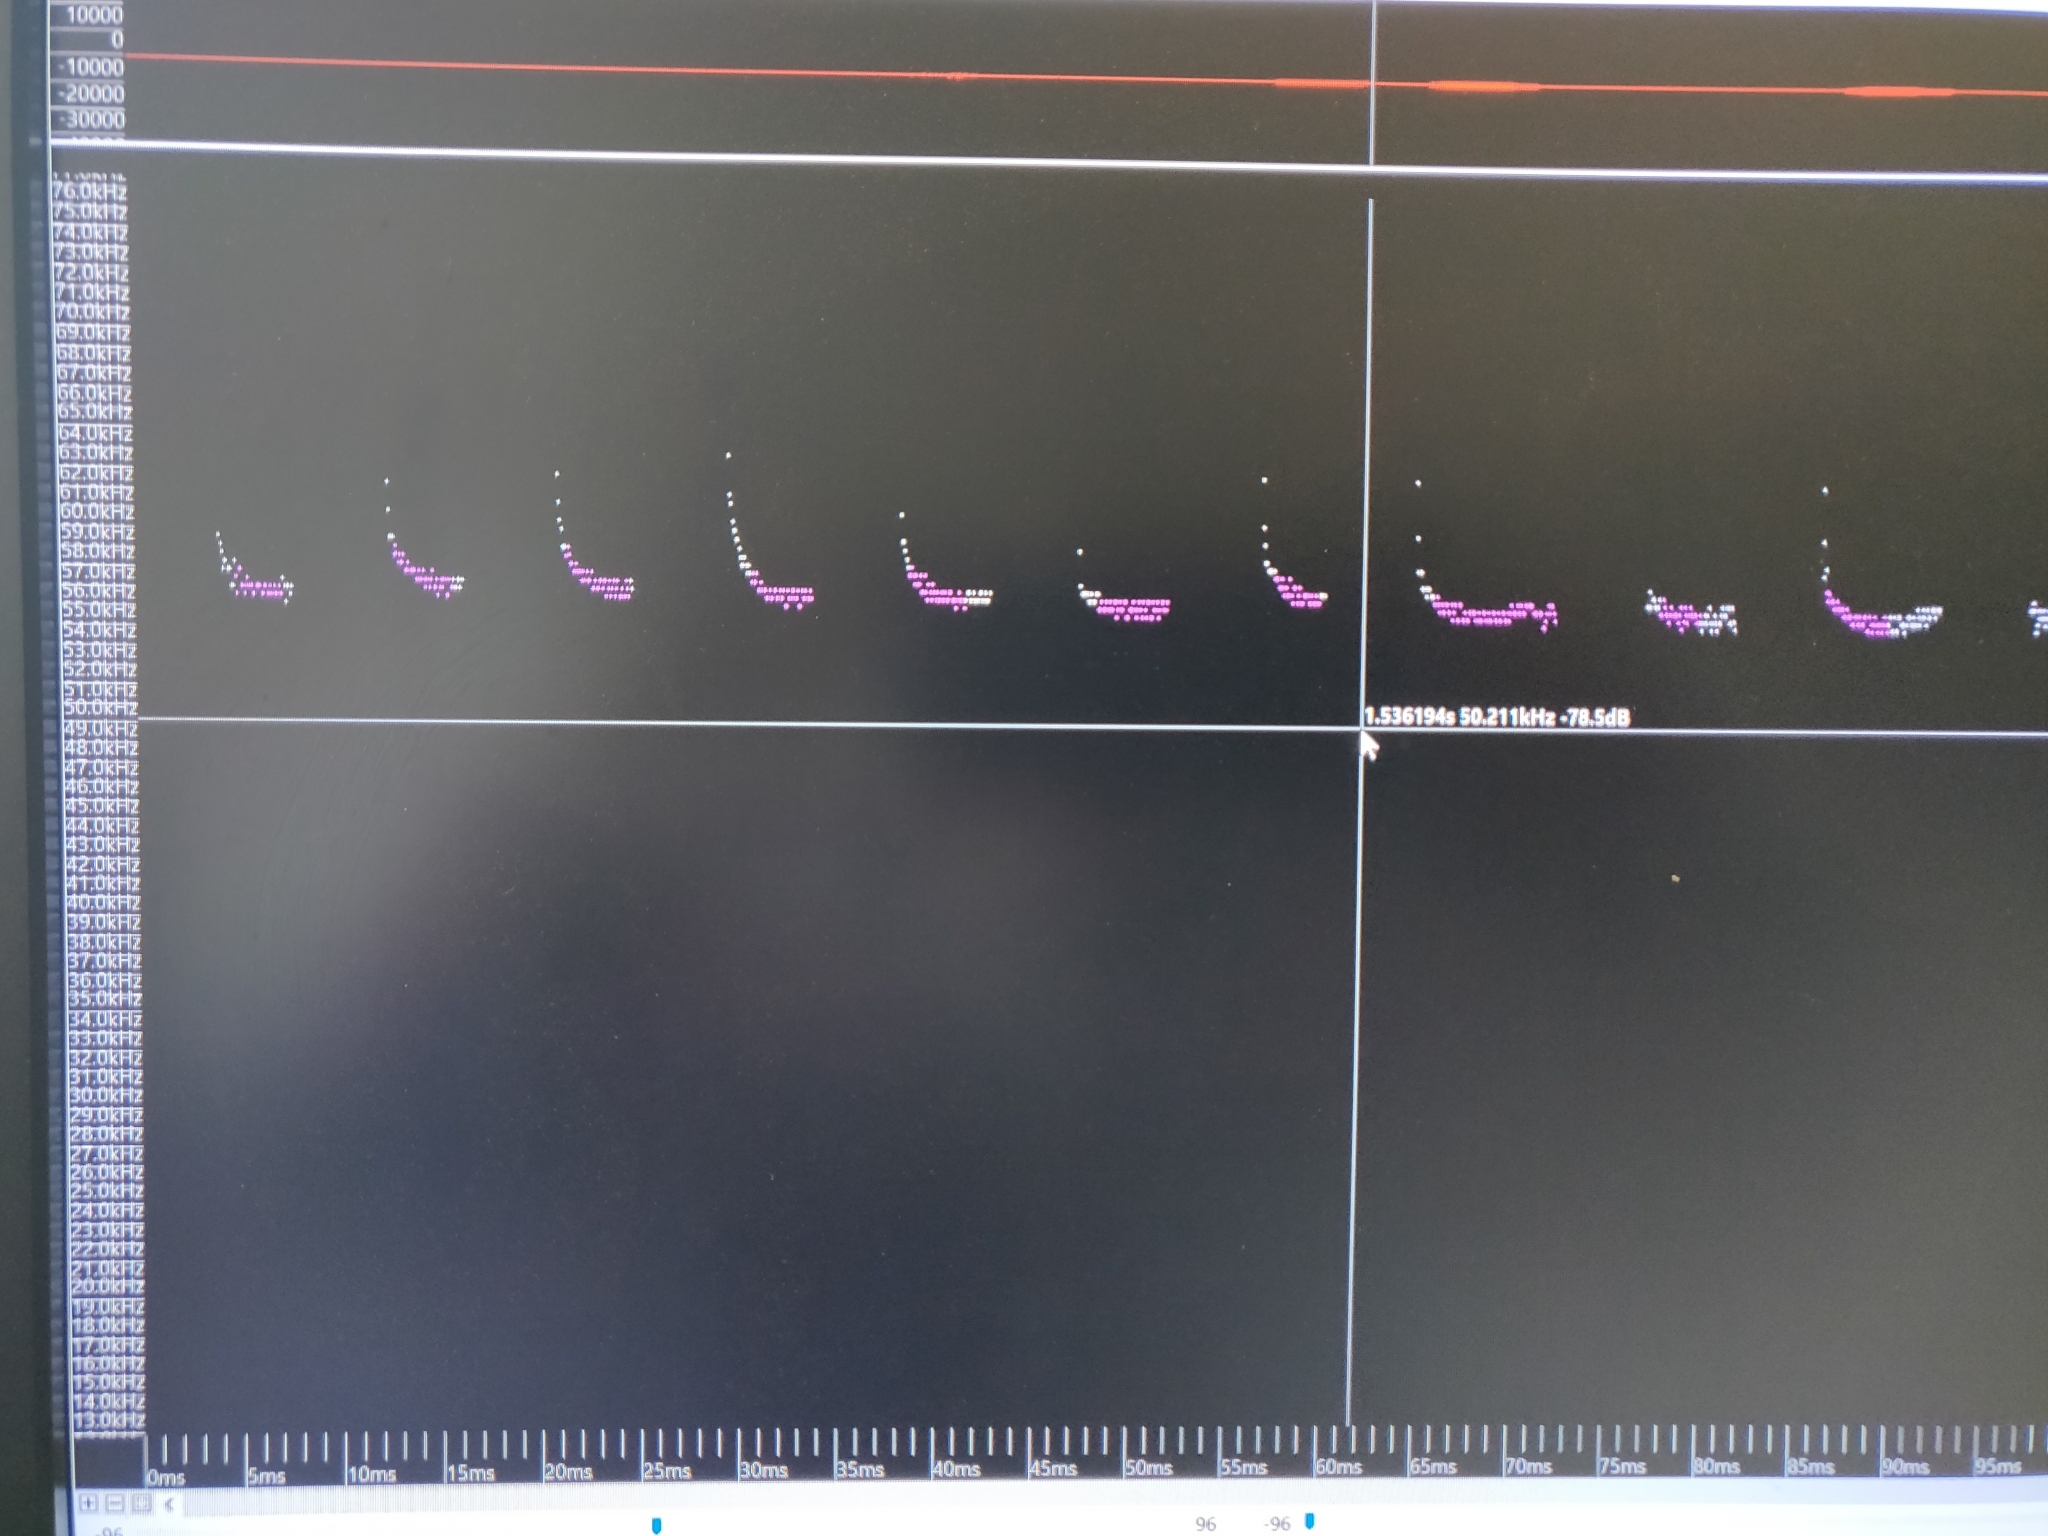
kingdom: Animalia
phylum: Chordata
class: Mammalia
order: Chiroptera
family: Vespertilionidae
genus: Pipistrellus
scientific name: Pipistrellus pygmaeus
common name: Soprano pipistrelle
